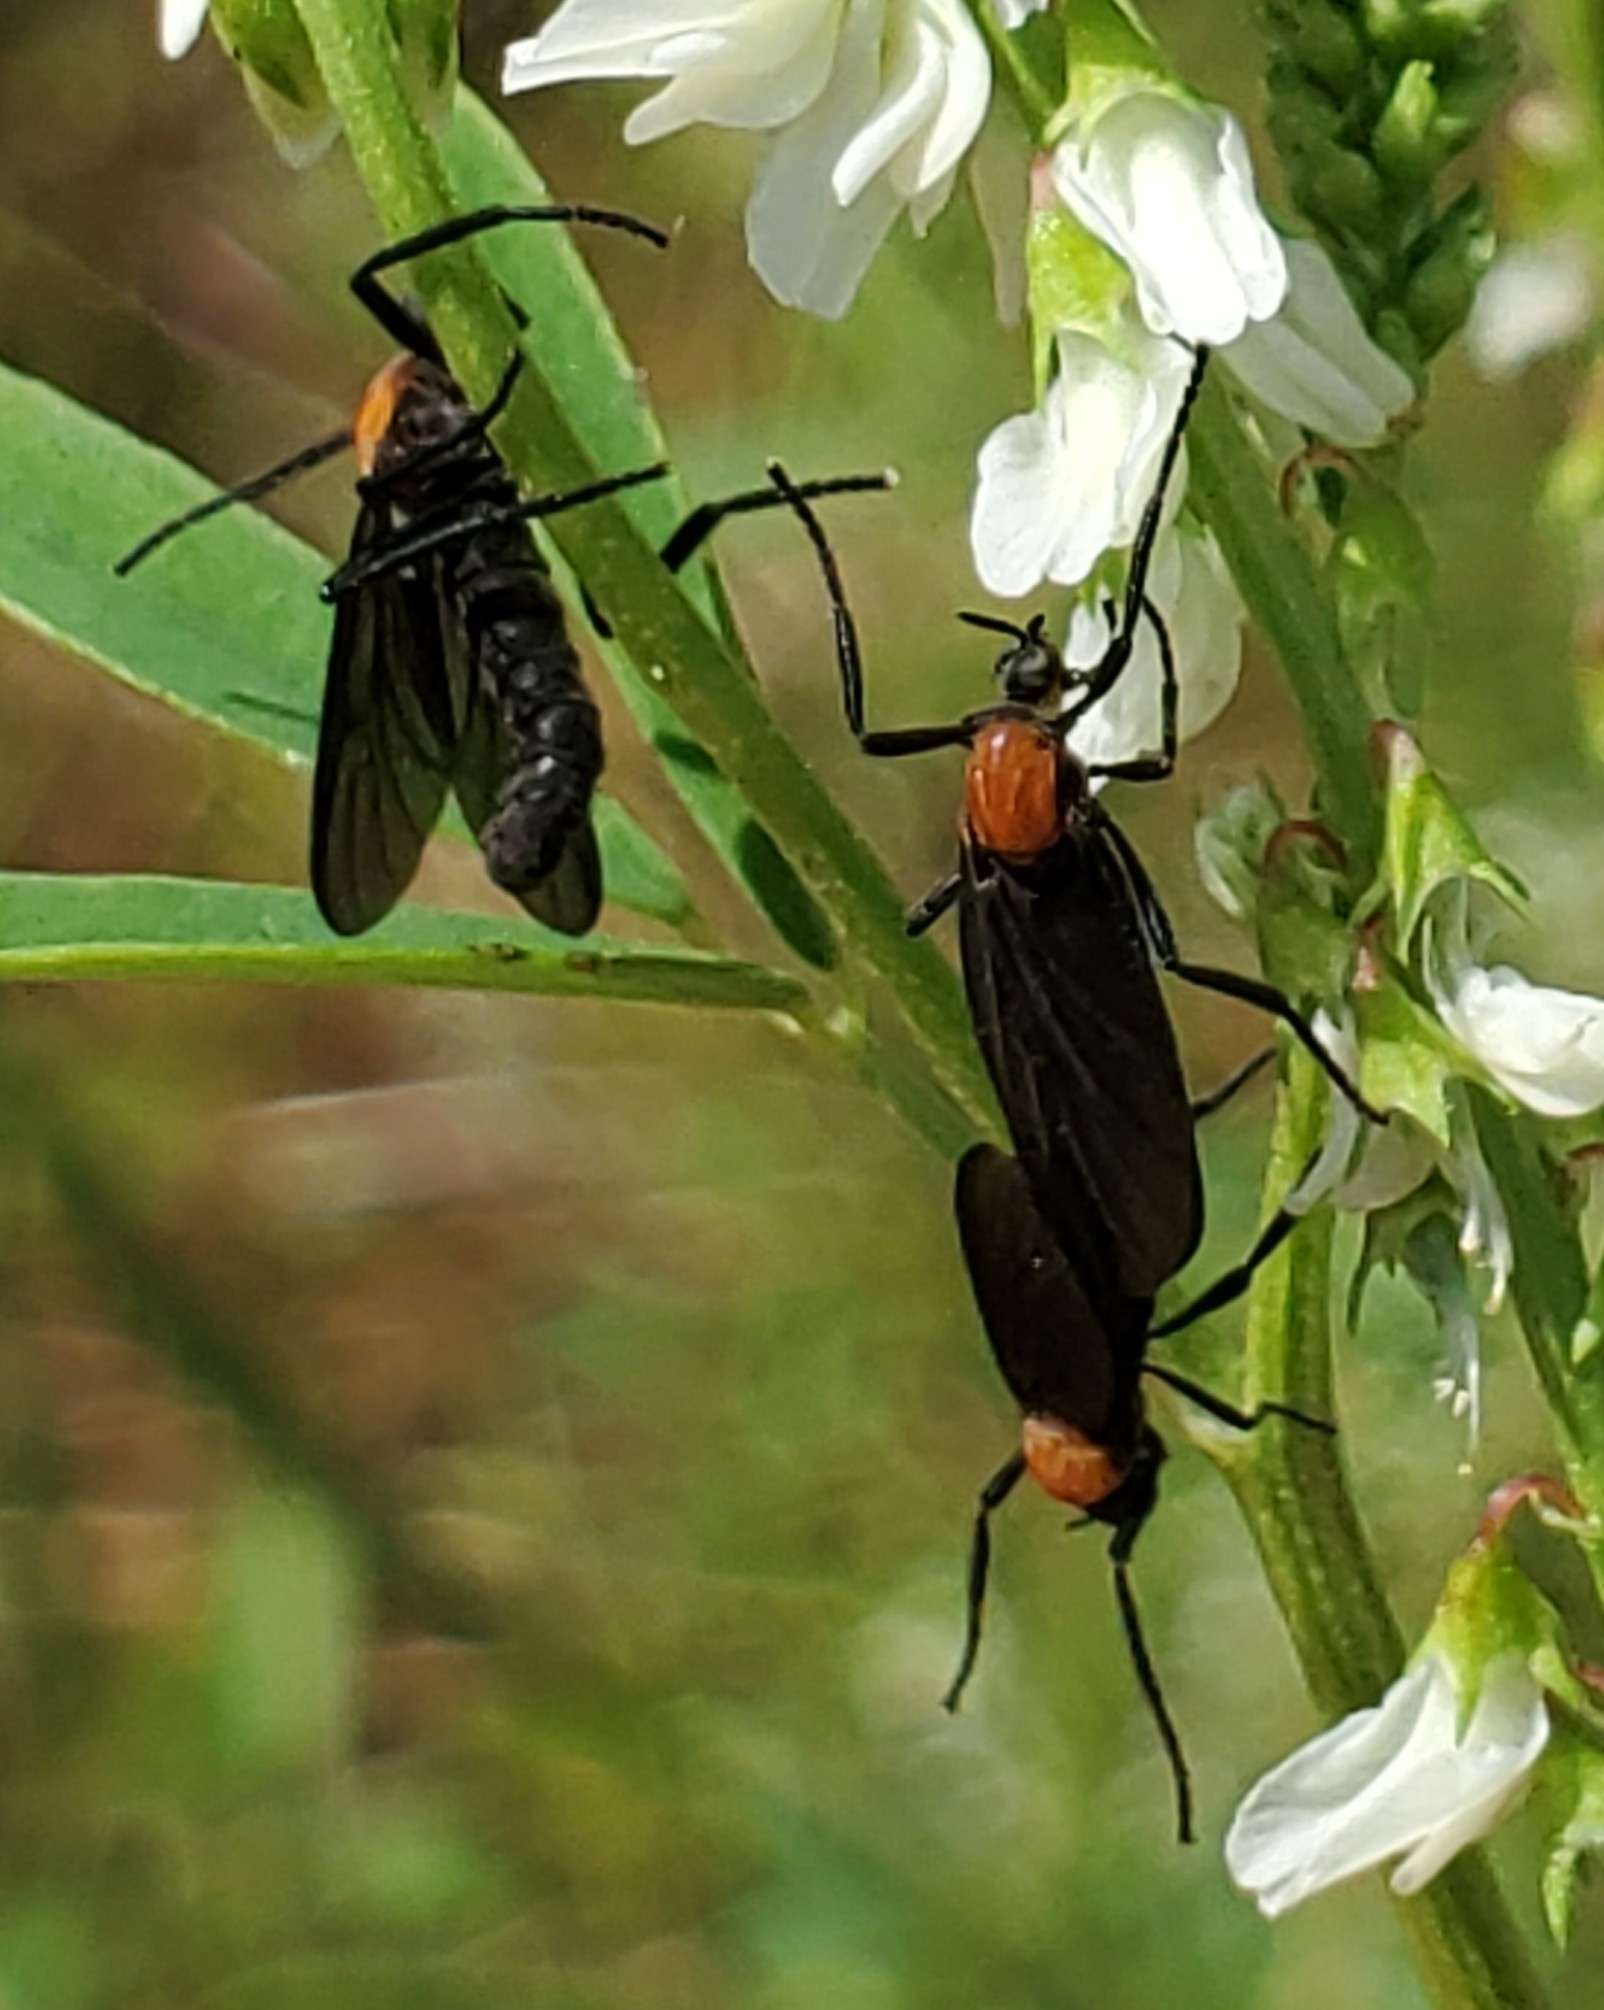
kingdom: Animalia
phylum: Arthropoda
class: Insecta
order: Diptera
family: Bibionidae
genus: Plecia
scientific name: Plecia nearctica
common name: March fly
